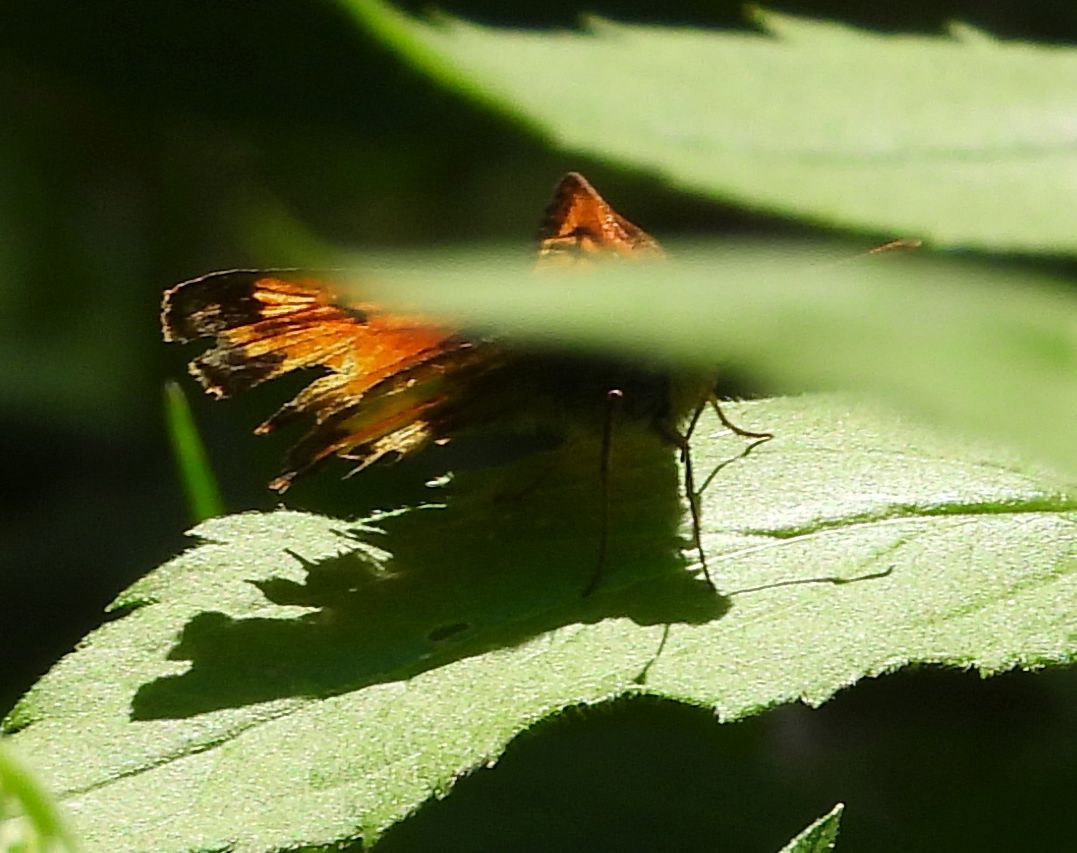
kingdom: Animalia
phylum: Arthropoda
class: Insecta
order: Lepidoptera
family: Hesperiidae
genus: Lon
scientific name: Lon hobomok
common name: Hobomok skipper
